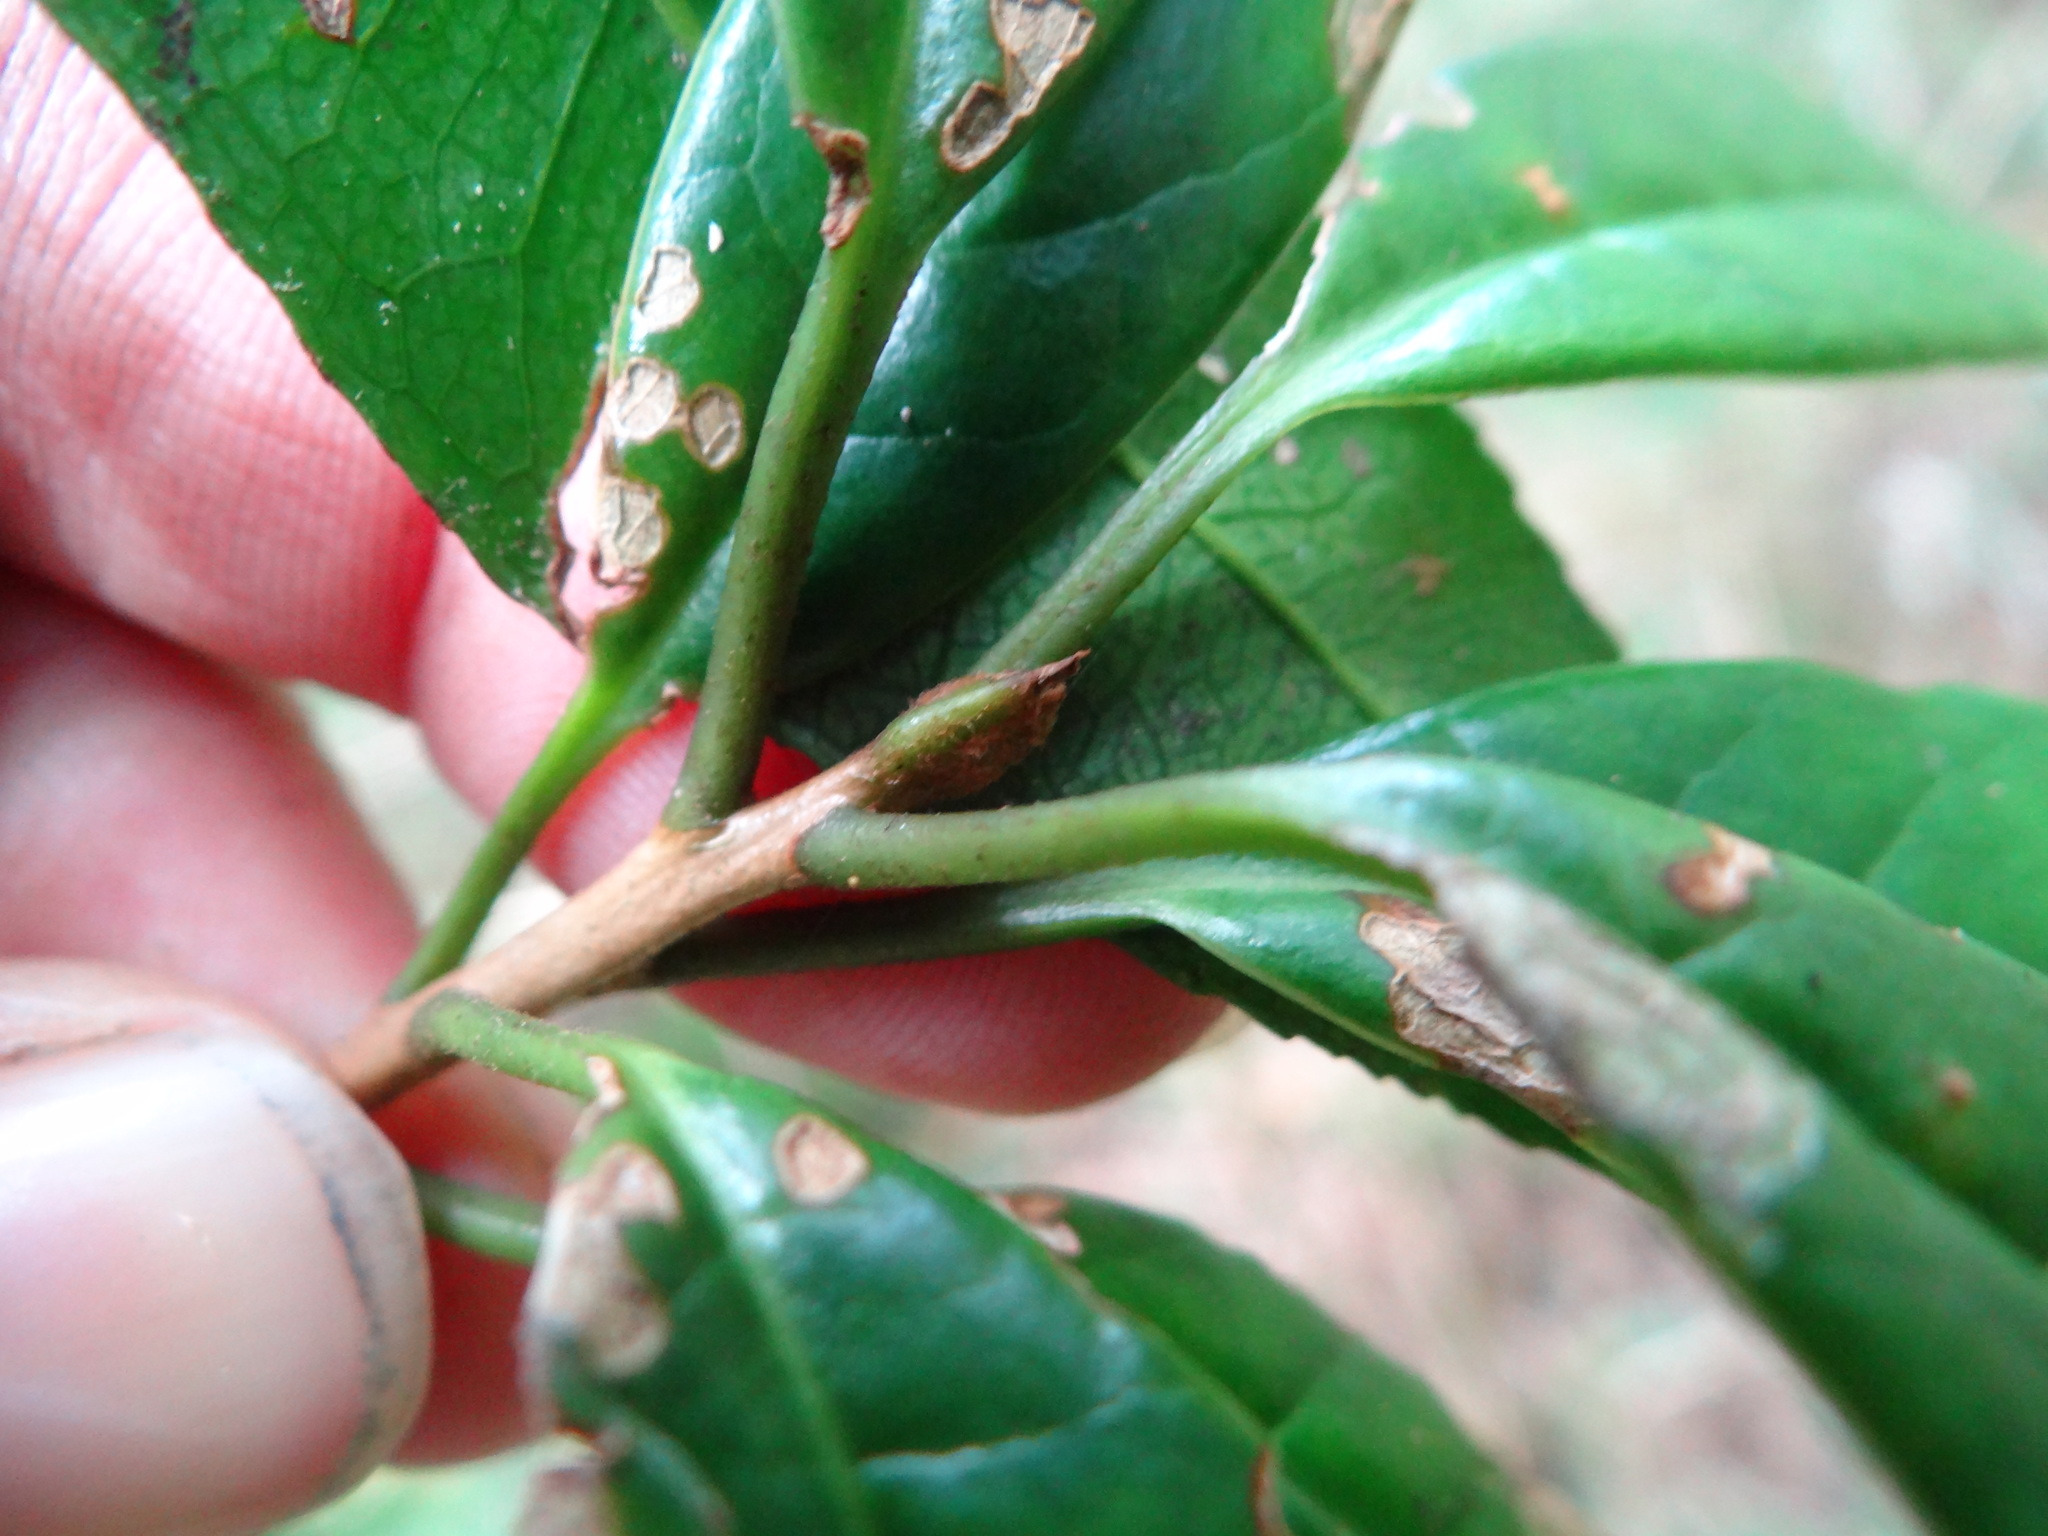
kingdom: Plantae
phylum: Tracheophyta
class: Magnoliopsida
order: Ericales
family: Symplocaceae
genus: Symplocos
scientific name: Symplocos stellaris
